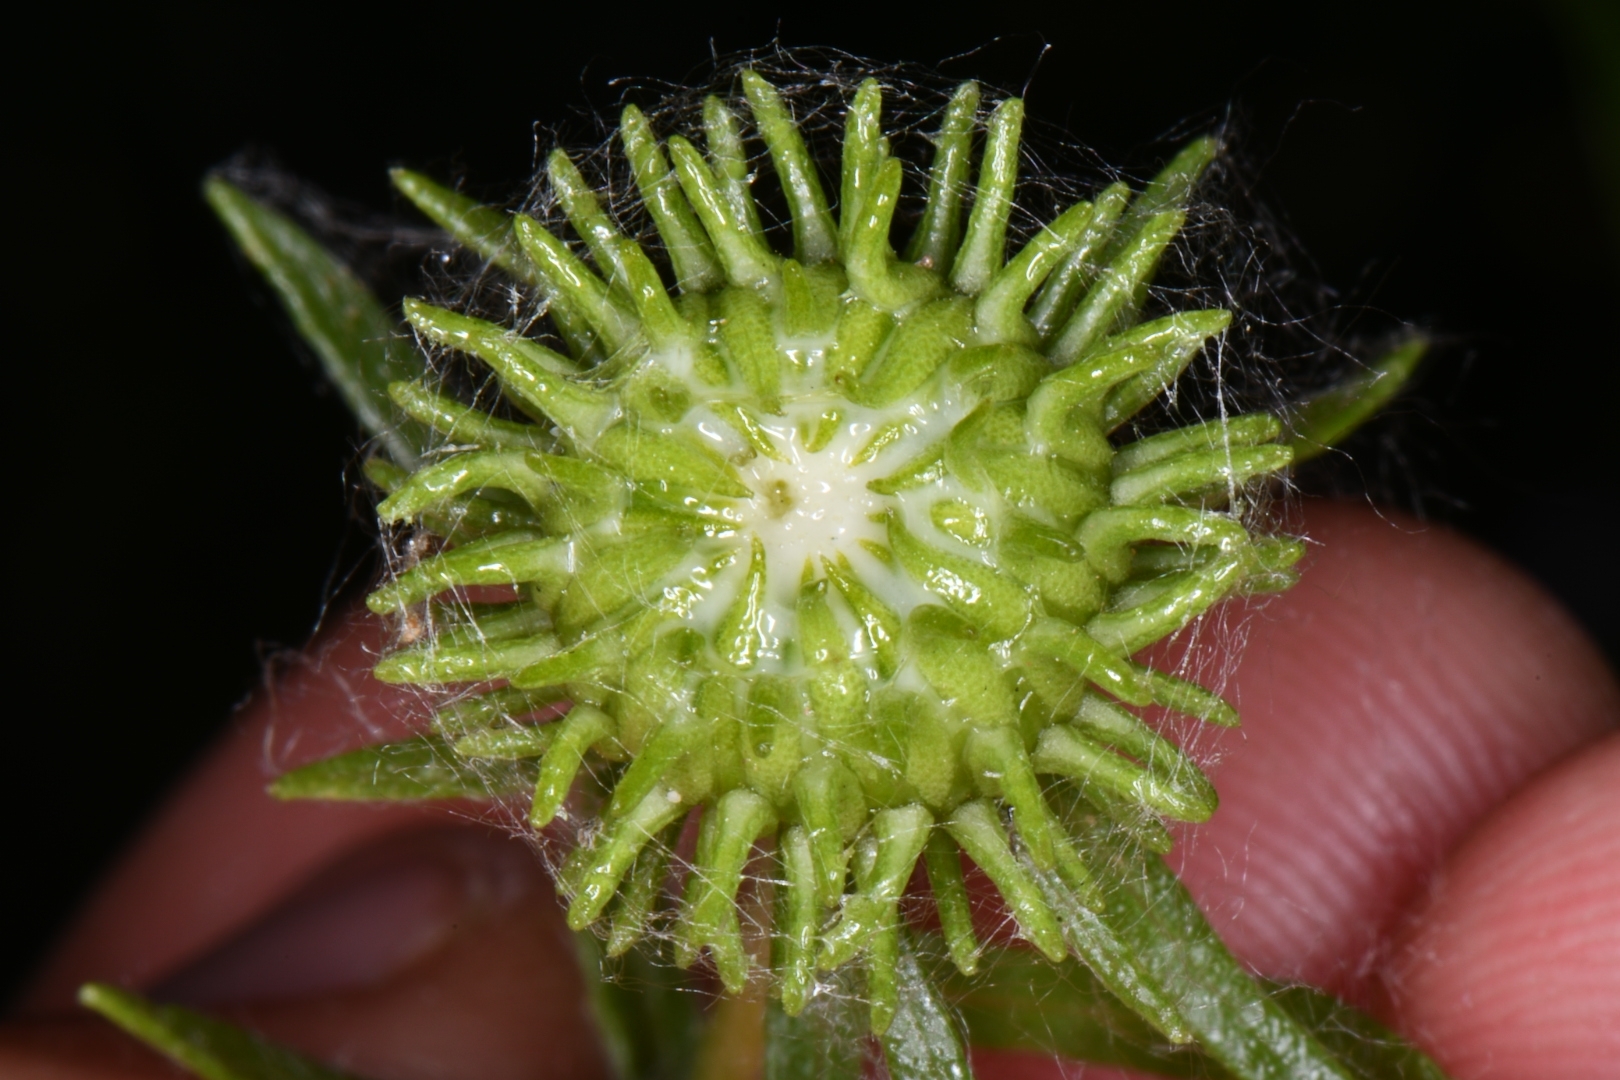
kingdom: Plantae
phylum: Tracheophyta
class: Magnoliopsida
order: Asterales
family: Asteraceae
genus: Grindelia
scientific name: Grindelia squarrosa
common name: Curly-cup gumweed
